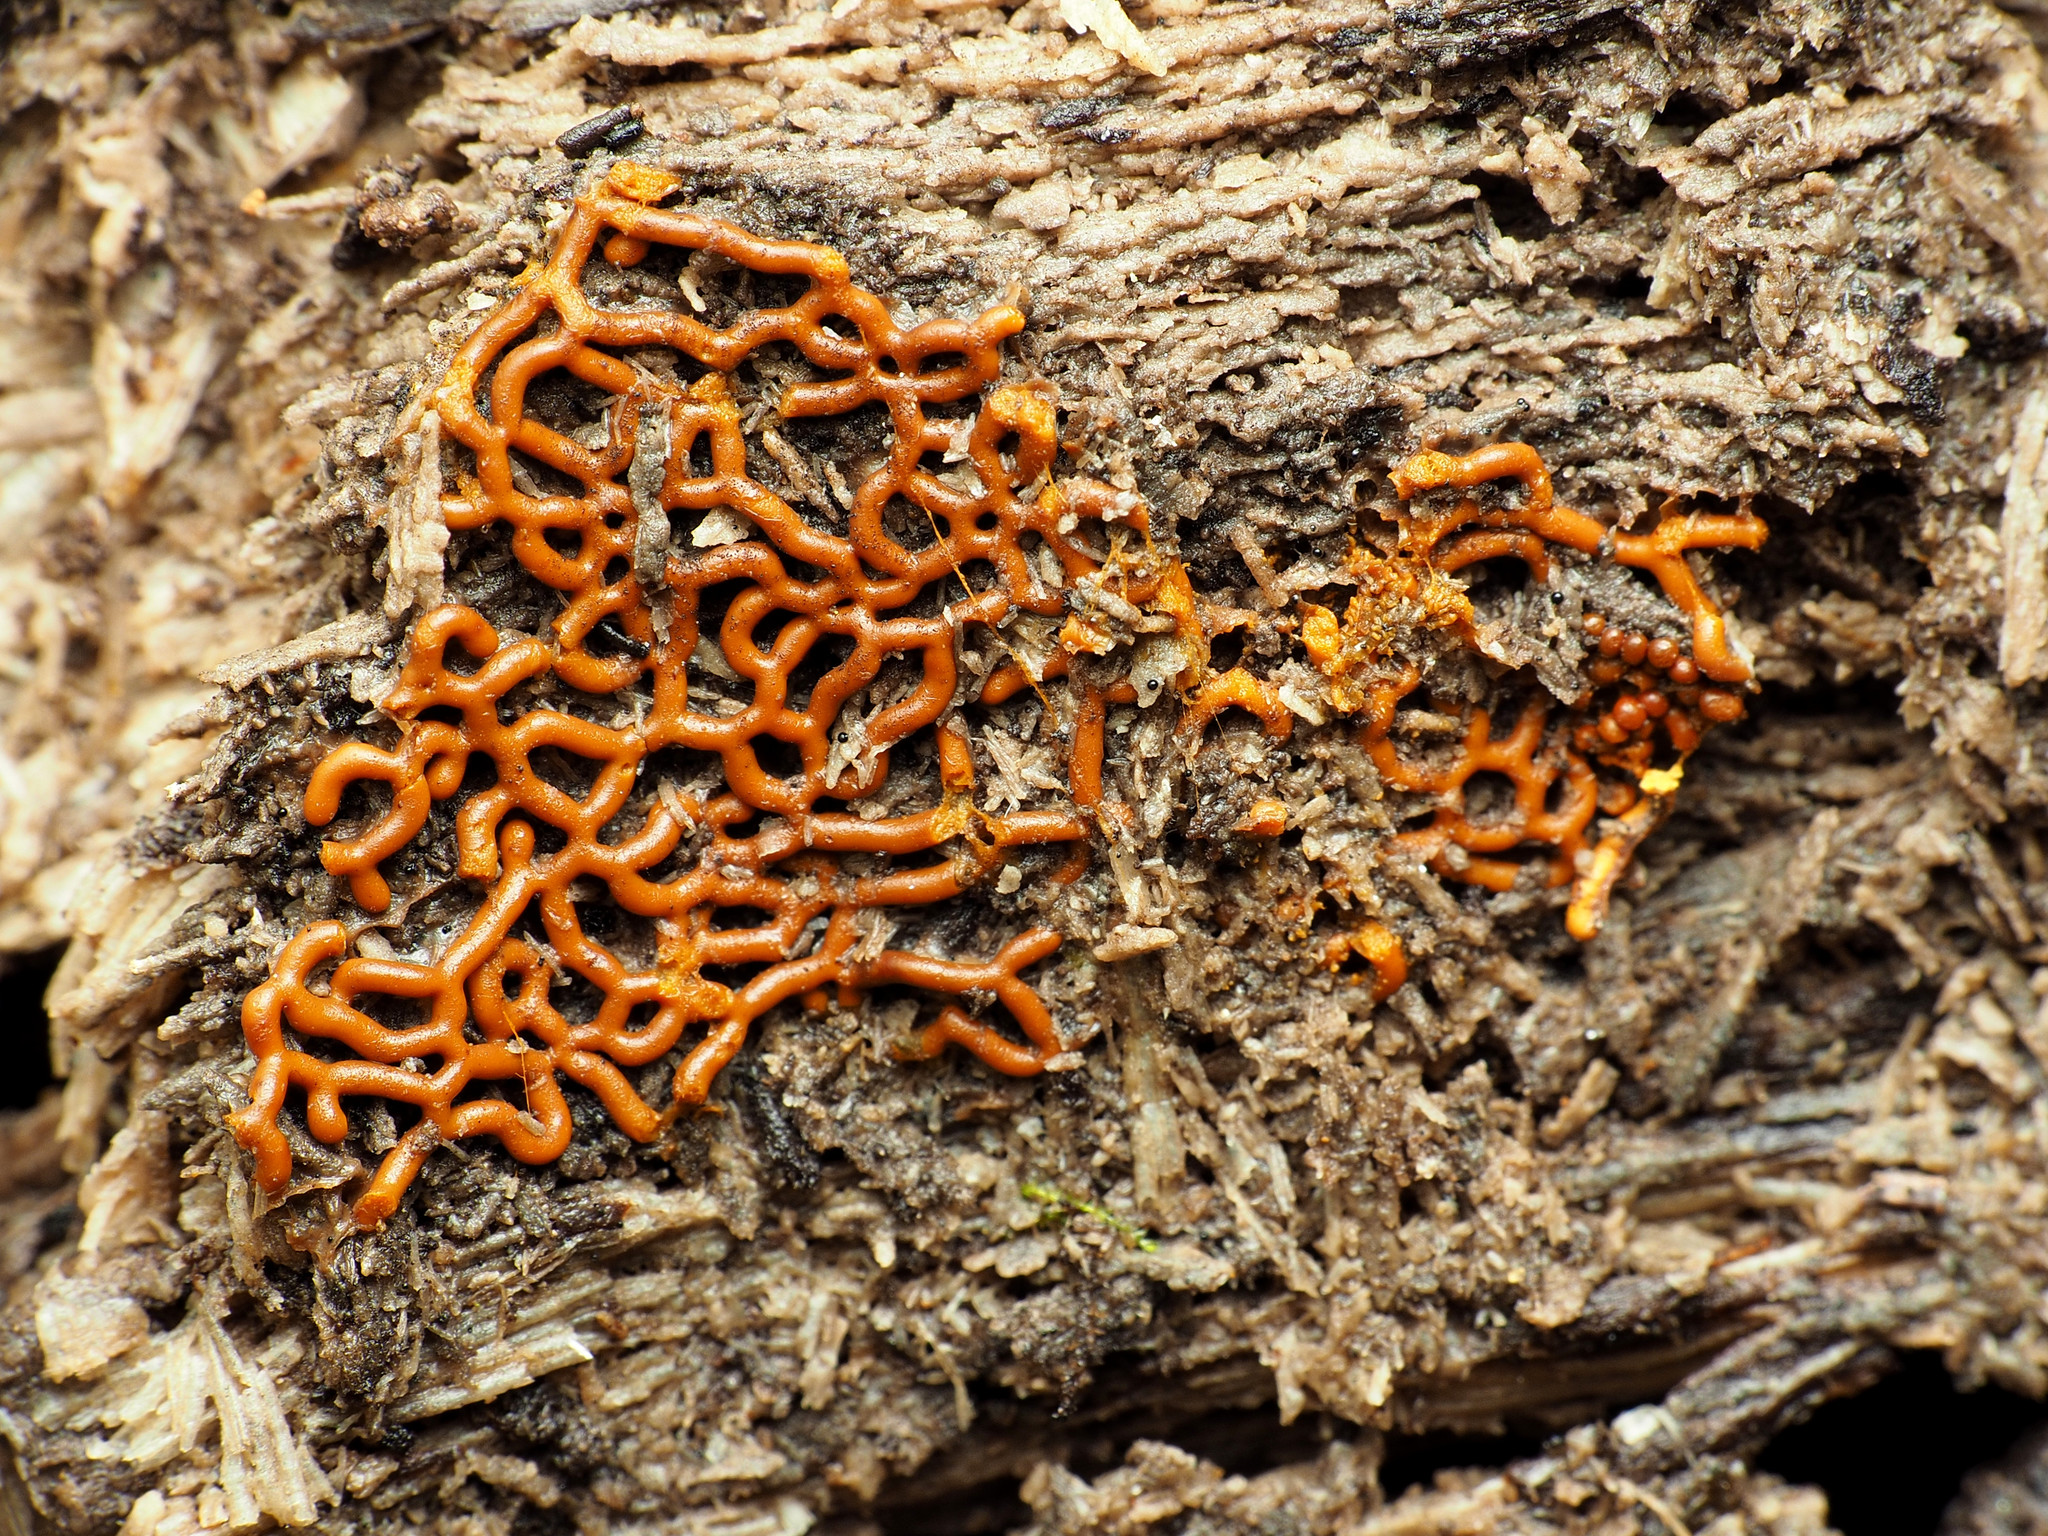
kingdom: Protozoa
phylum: Mycetozoa
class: Myxomycetes
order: Trichiales
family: Arcyriaceae
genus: Hemitrichia
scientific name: Hemitrichia serpula
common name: Pretzel slime mold
